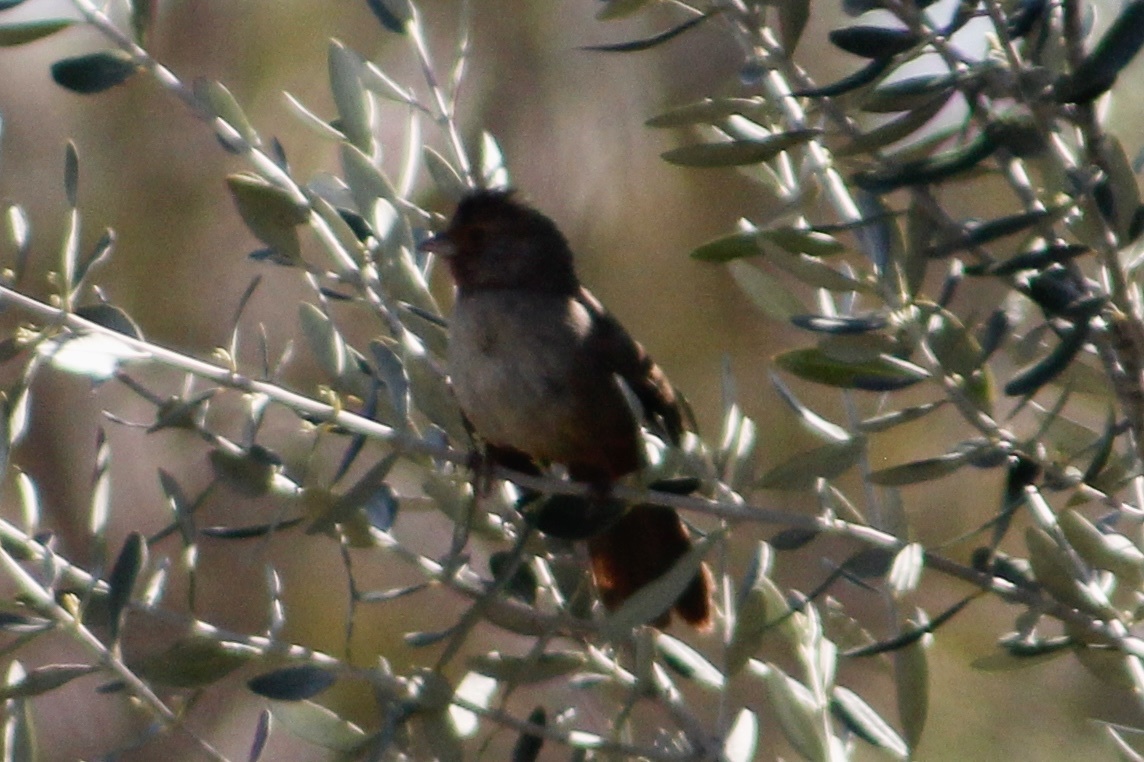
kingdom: Animalia
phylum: Chordata
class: Aves
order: Passeriformes
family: Passerellidae
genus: Melozone
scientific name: Melozone crissalis
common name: California towhee
